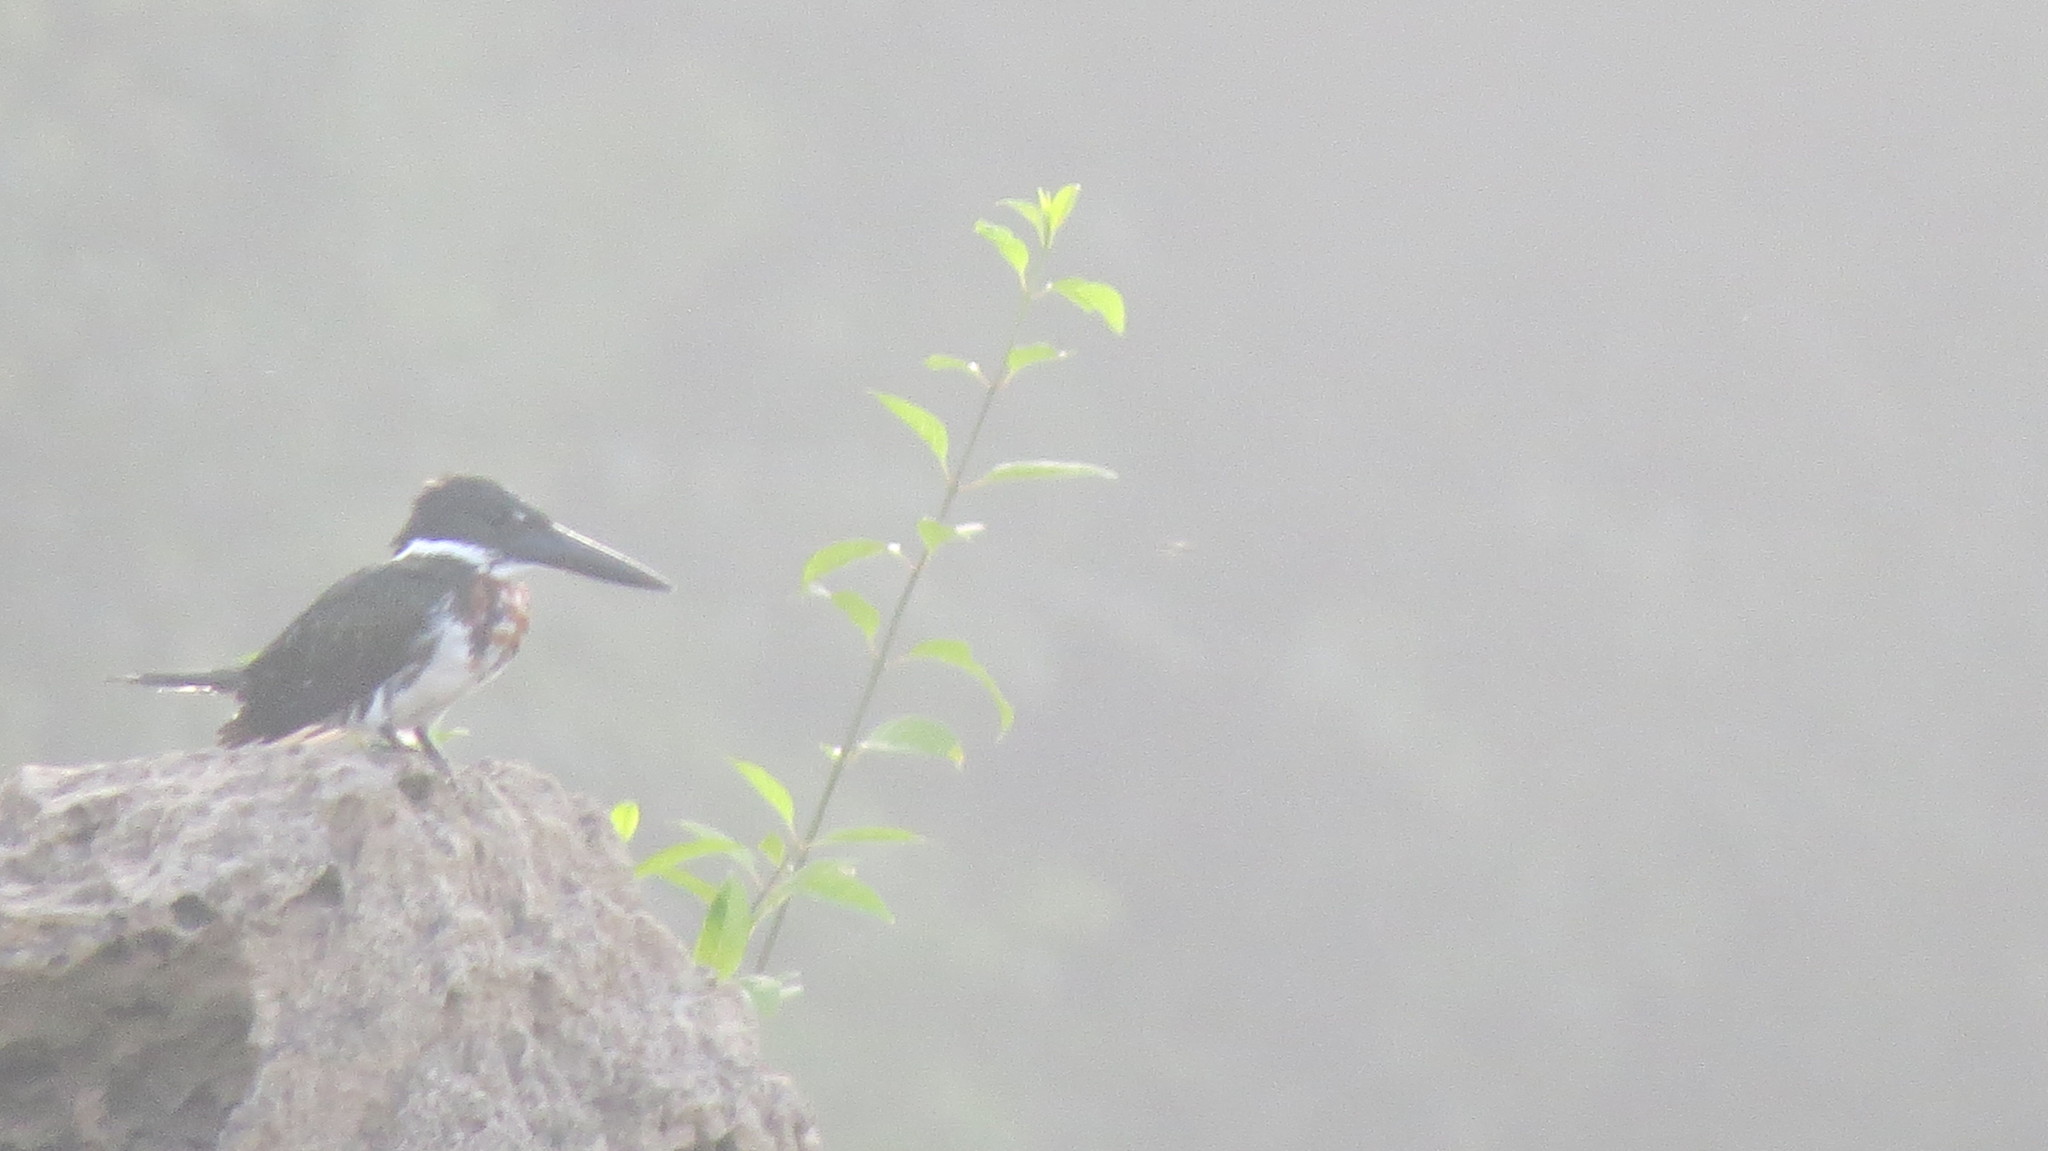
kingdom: Animalia
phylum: Chordata
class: Aves
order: Coraciiformes
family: Alcedinidae
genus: Chloroceryle
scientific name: Chloroceryle amazona
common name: Amazon kingfisher
